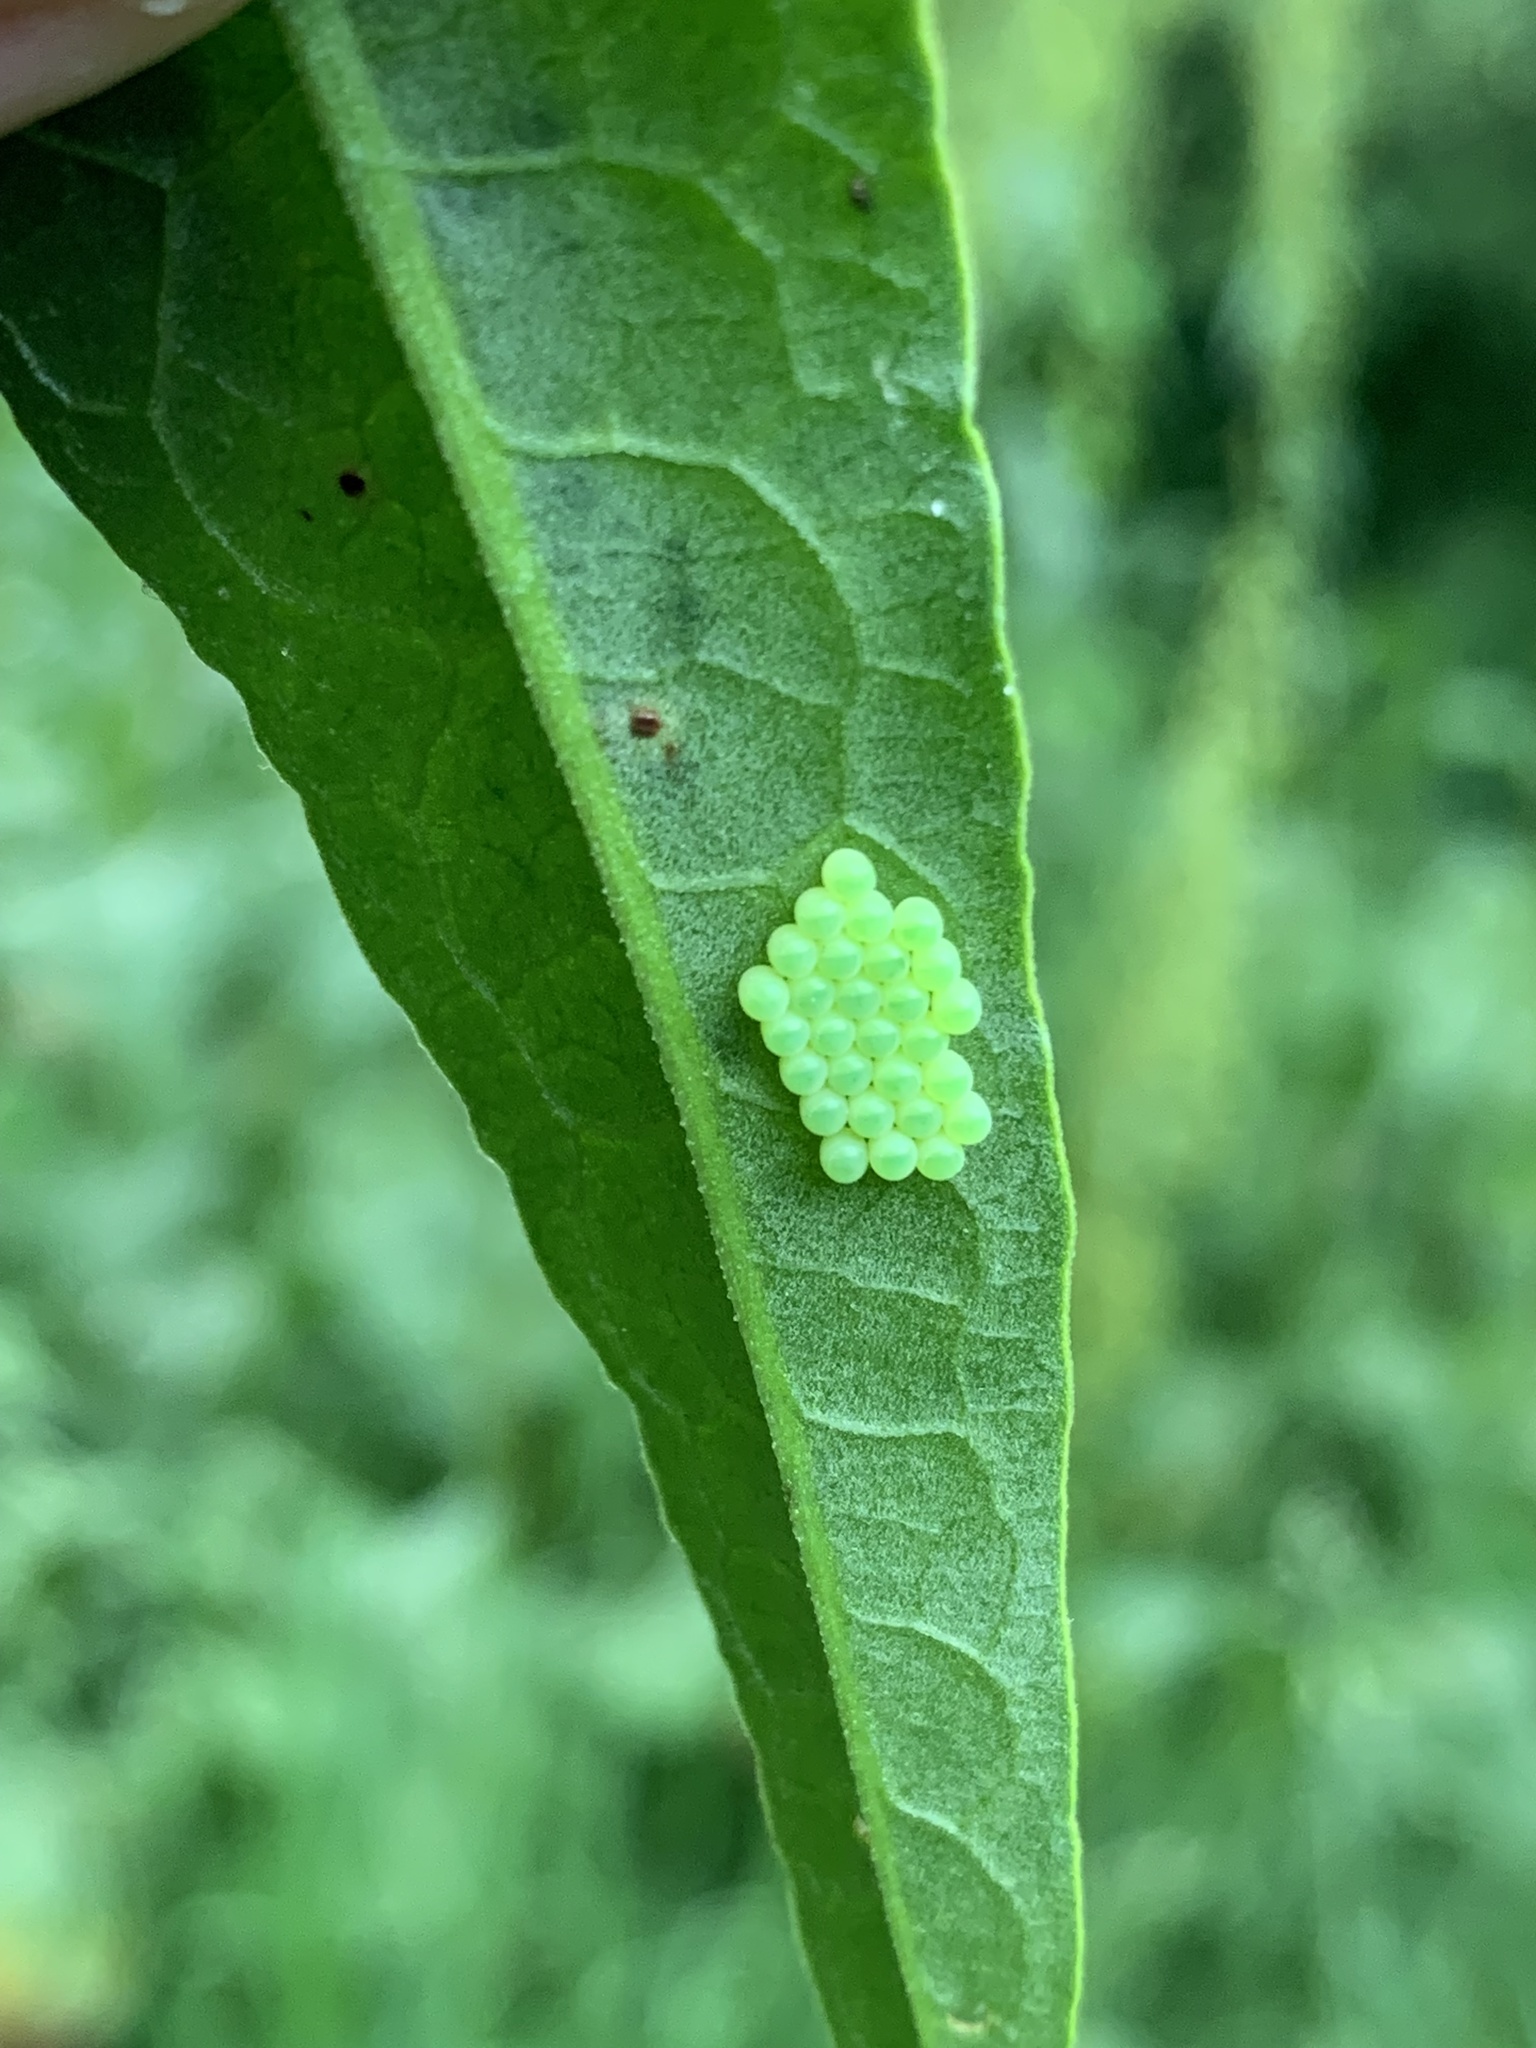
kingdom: Animalia
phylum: Arthropoda
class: Insecta
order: Hemiptera
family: Pentatomidae
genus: Palomena
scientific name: Palomena prasina
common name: Green shieldbug
